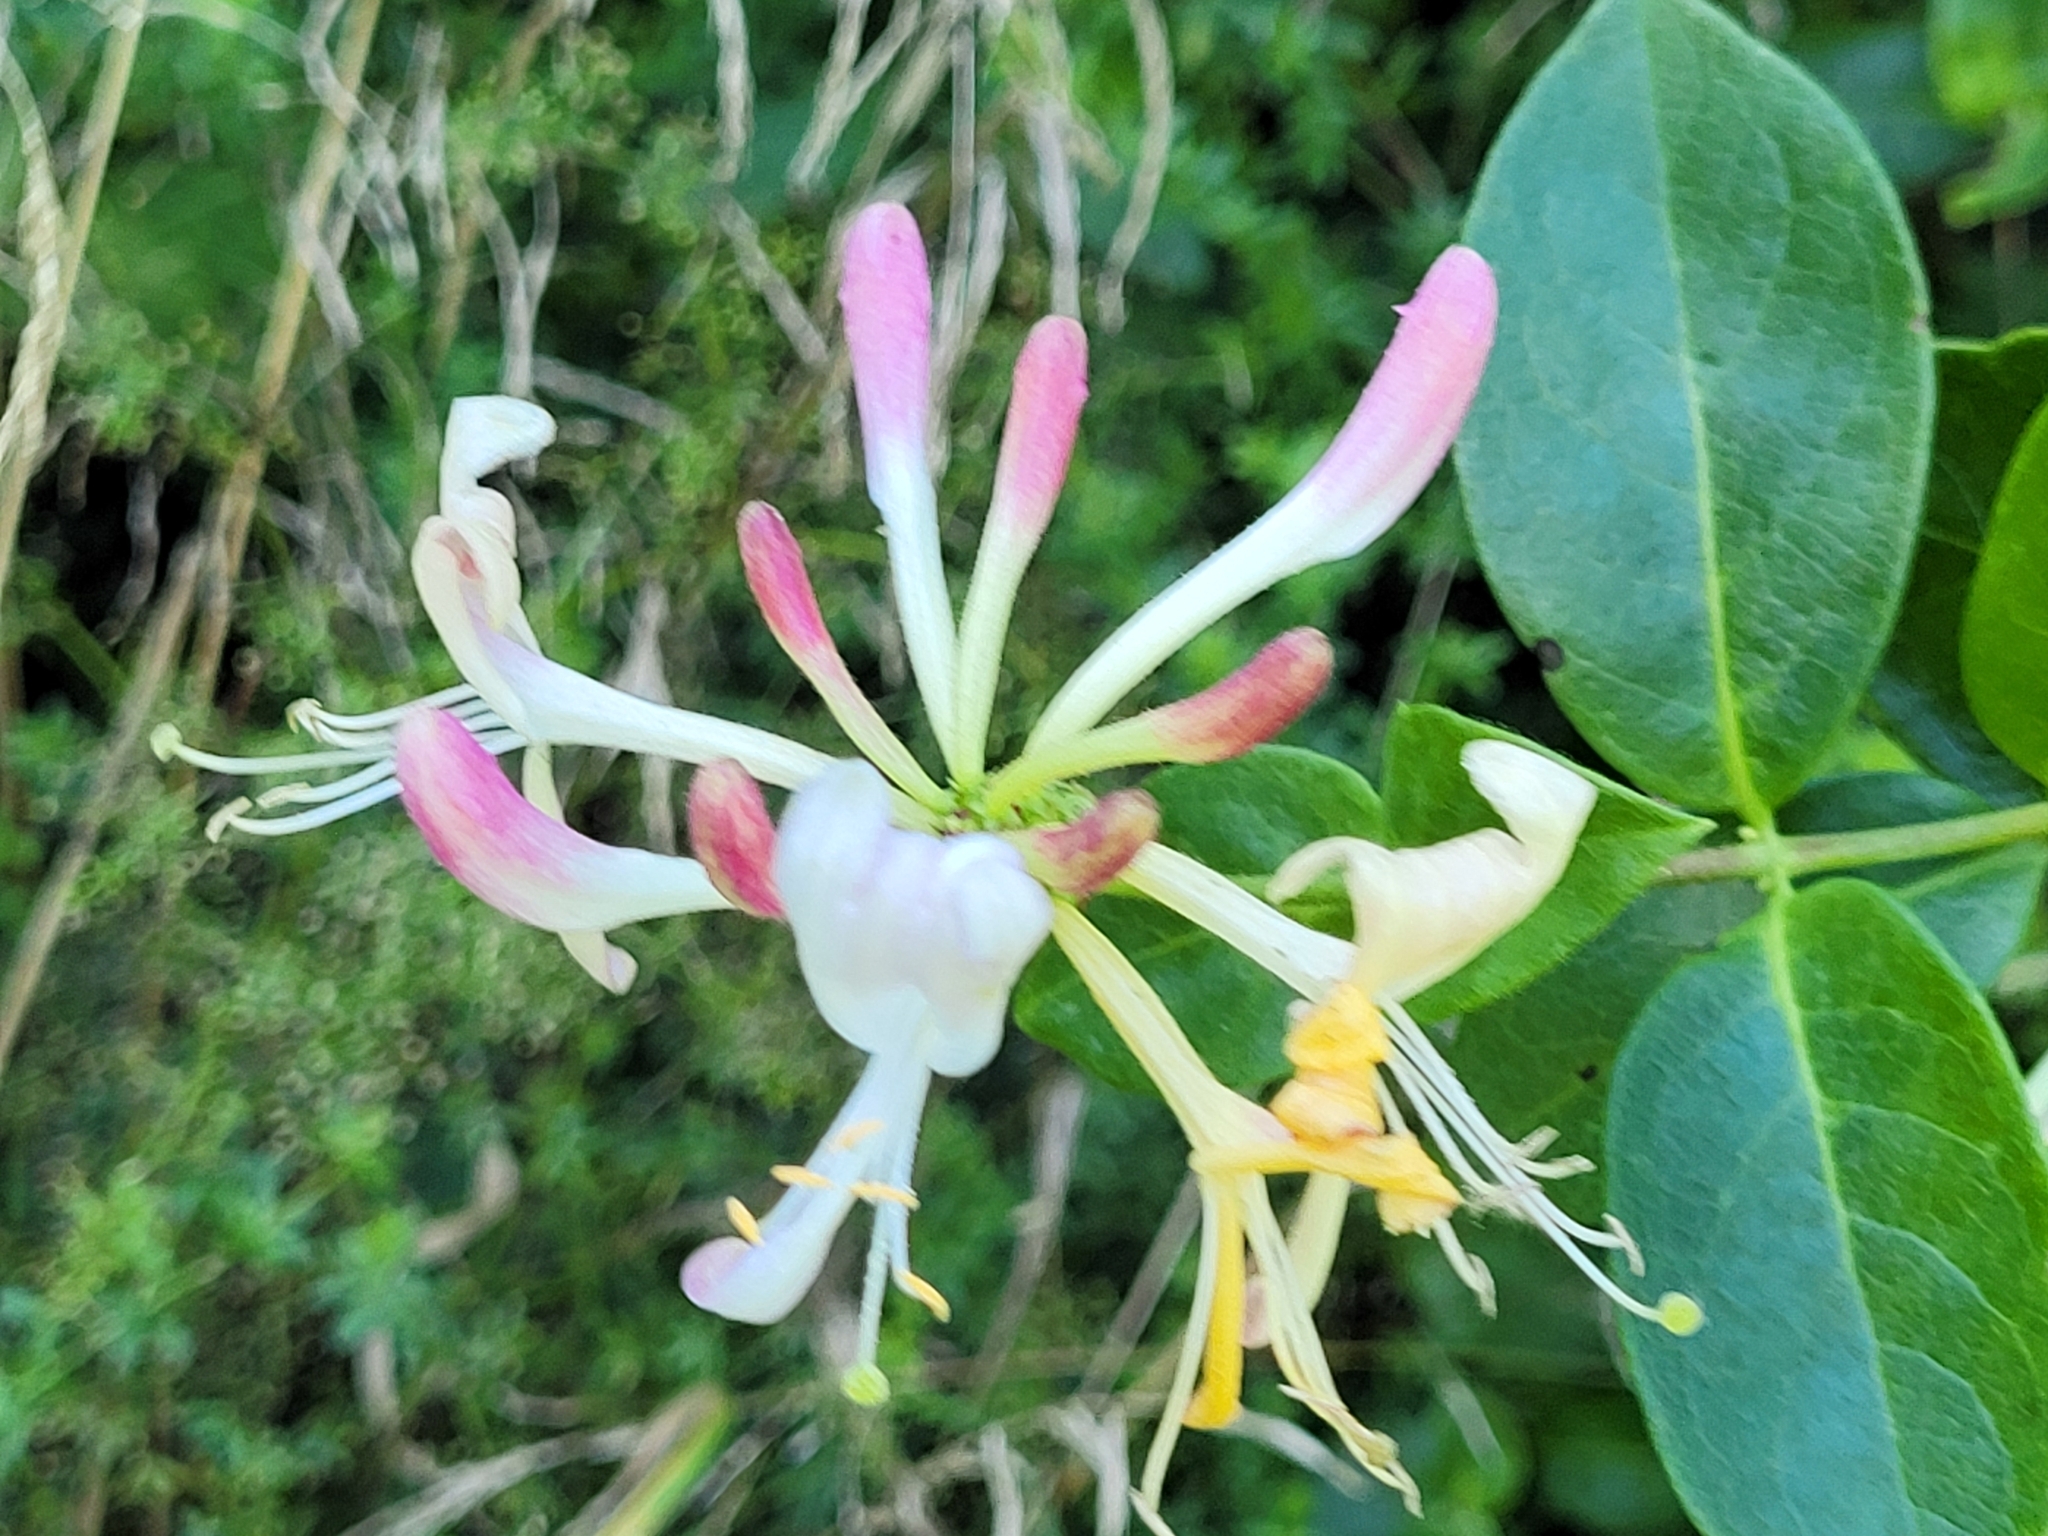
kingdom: Plantae
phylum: Tracheophyta
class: Magnoliopsida
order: Dipsacales
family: Caprifoliaceae
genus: Lonicera
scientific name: Lonicera periclymenum
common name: European honeysuckle
